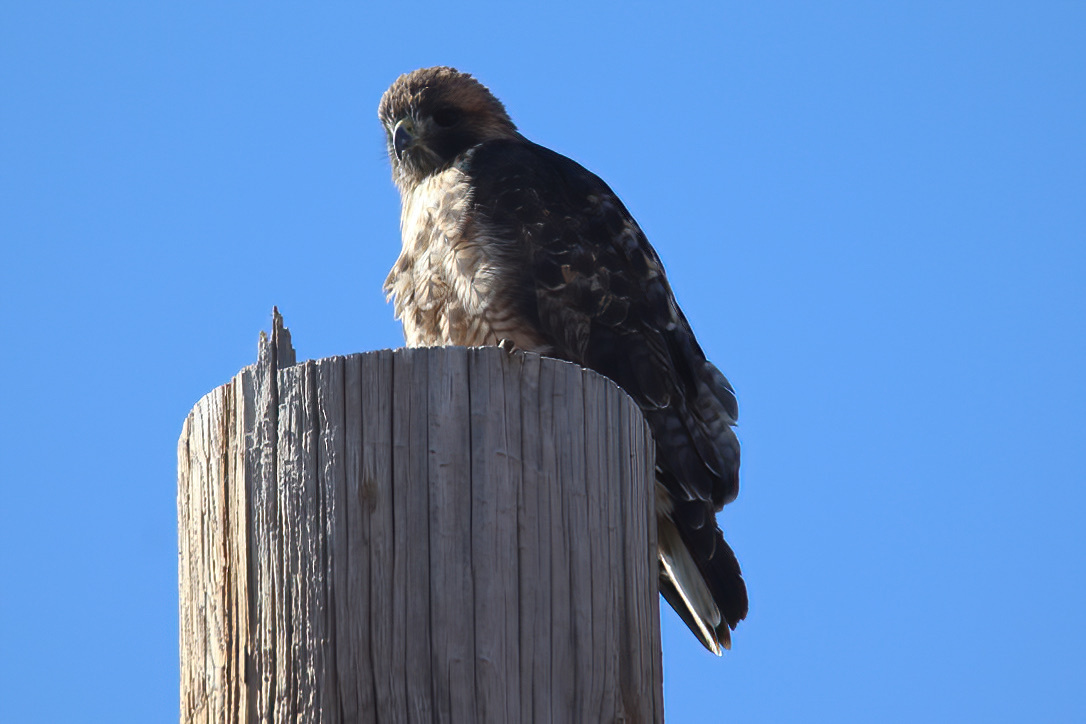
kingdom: Animalia
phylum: Chordata
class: Aves
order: Accipitriformes
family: Accipitridae
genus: Buteo
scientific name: Buteo jamaicensis
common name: Red-tailed hawk
